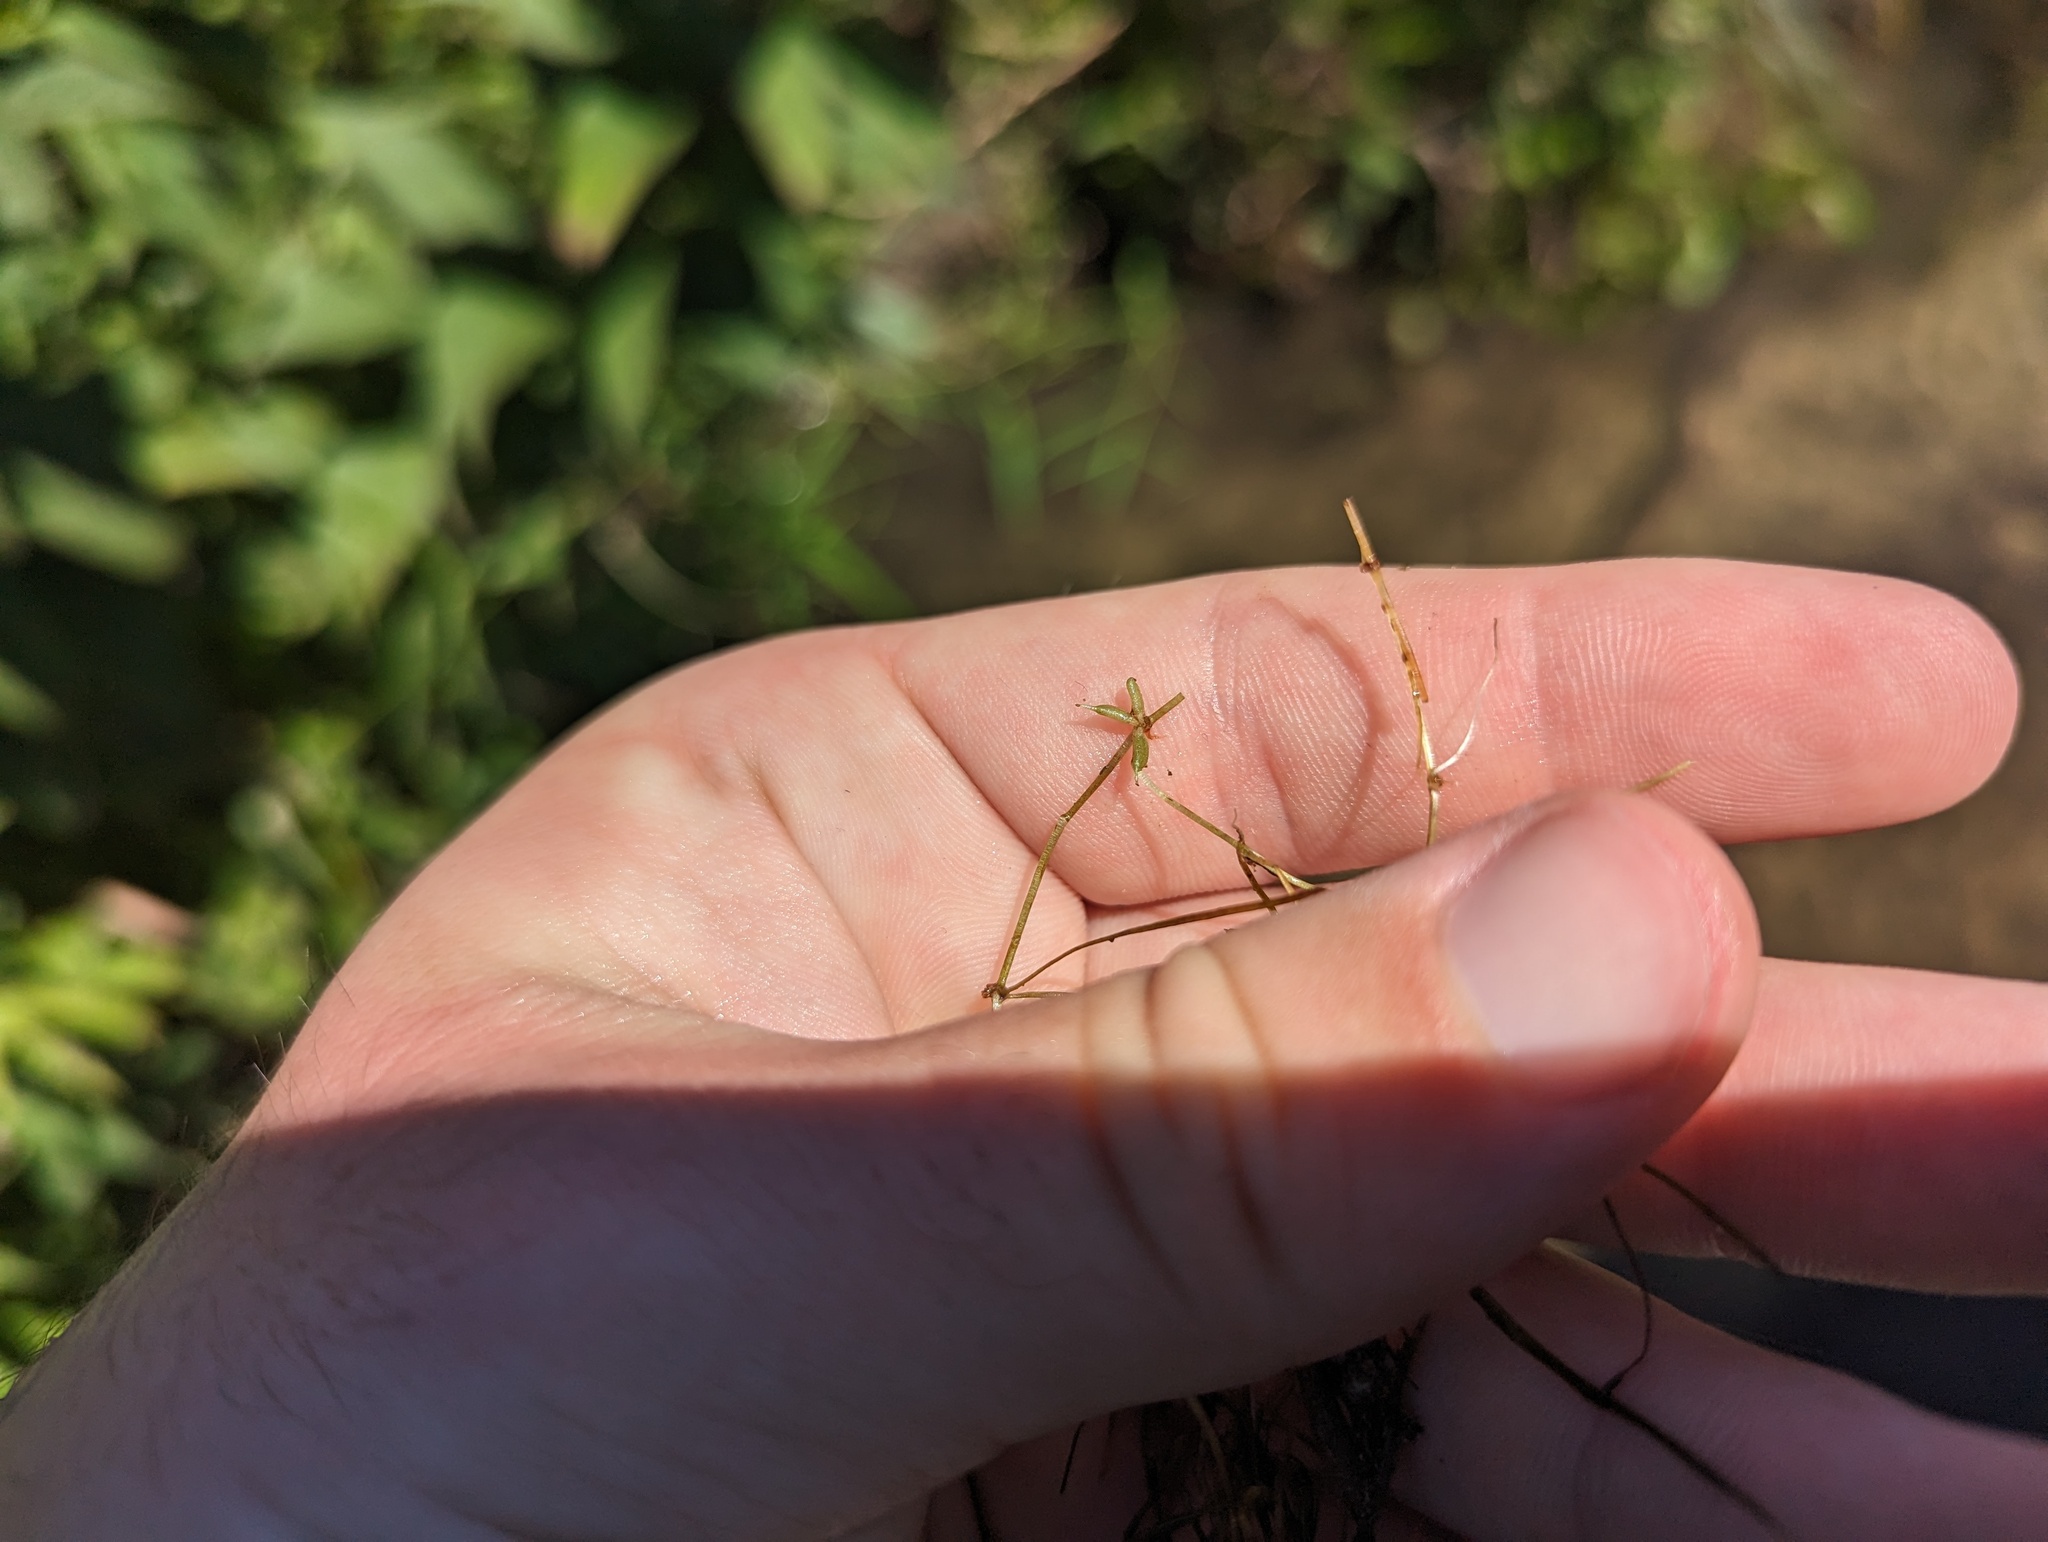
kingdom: Plantae
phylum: Tracheophyta
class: Liliopsida
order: Alismatales
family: Potamogetonaceae
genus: Zannichellia
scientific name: Zannichellia palustris
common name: Horned pondweed
